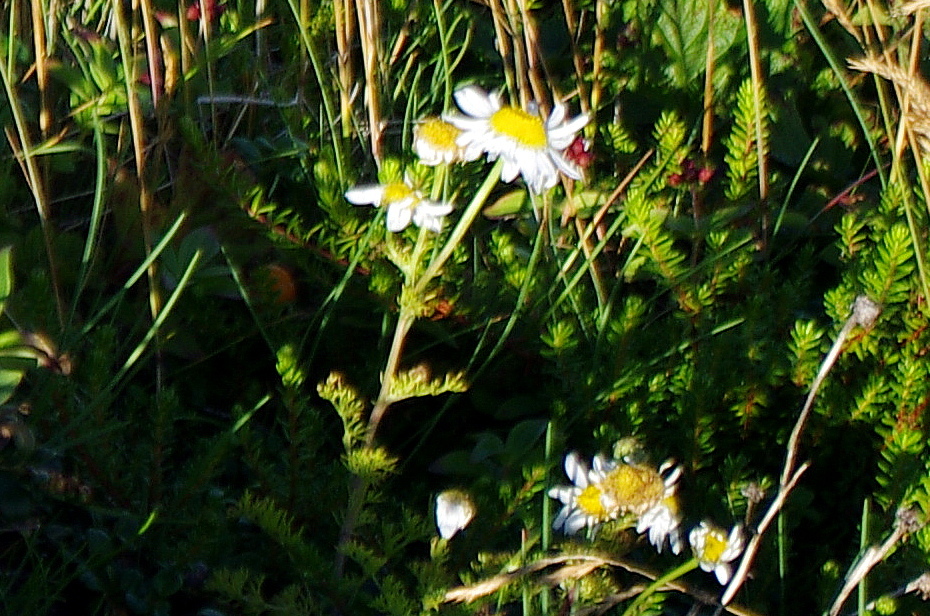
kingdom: Plantae
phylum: Tracheophyta
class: Magnoliopsida
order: Asterales
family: Asteraceae
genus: Tripleurospermum
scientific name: Tripleurospermum maritimum
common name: Sea mayweed
